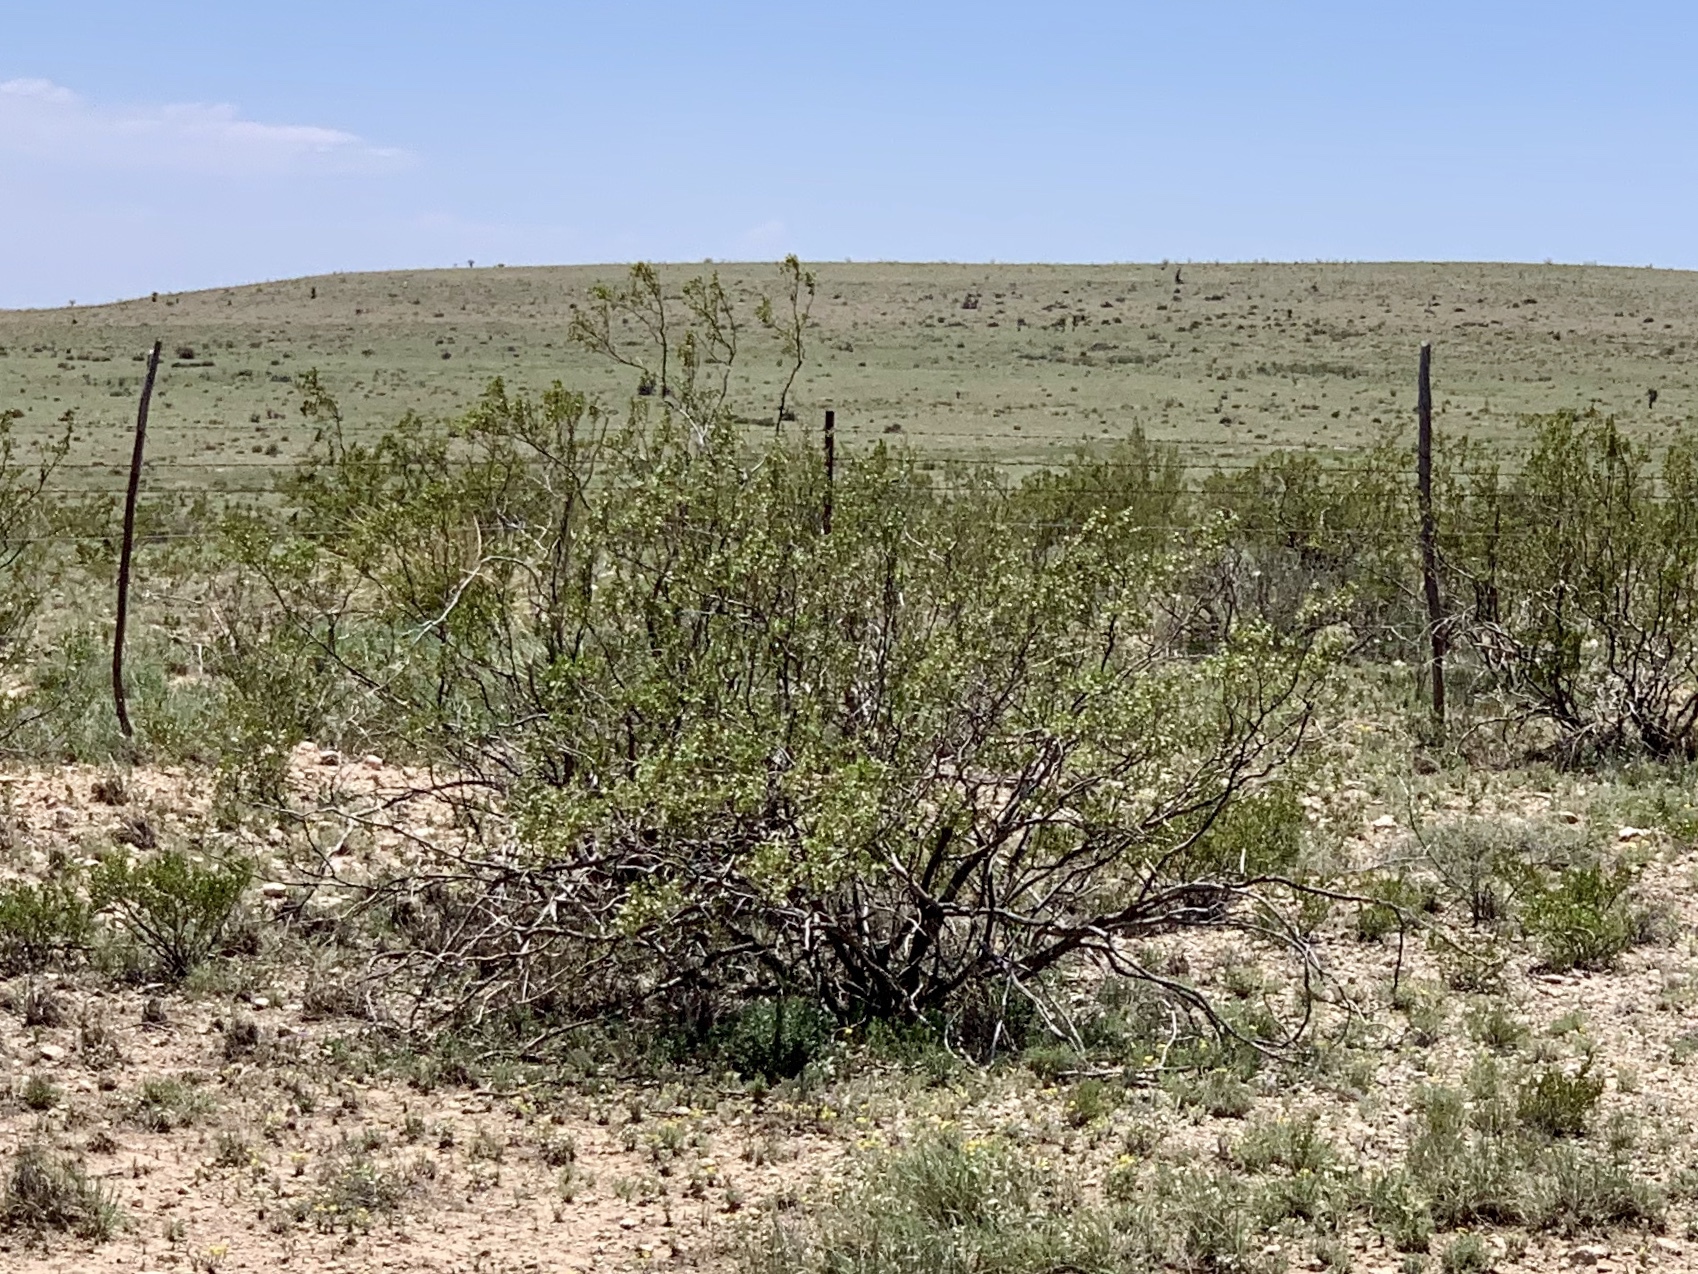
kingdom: Plantae
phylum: Tracheophyta
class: Magnoliopsida
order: Zygophyllales
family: Zygophyllaceae
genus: Larrea
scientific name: Larrea tridentata
